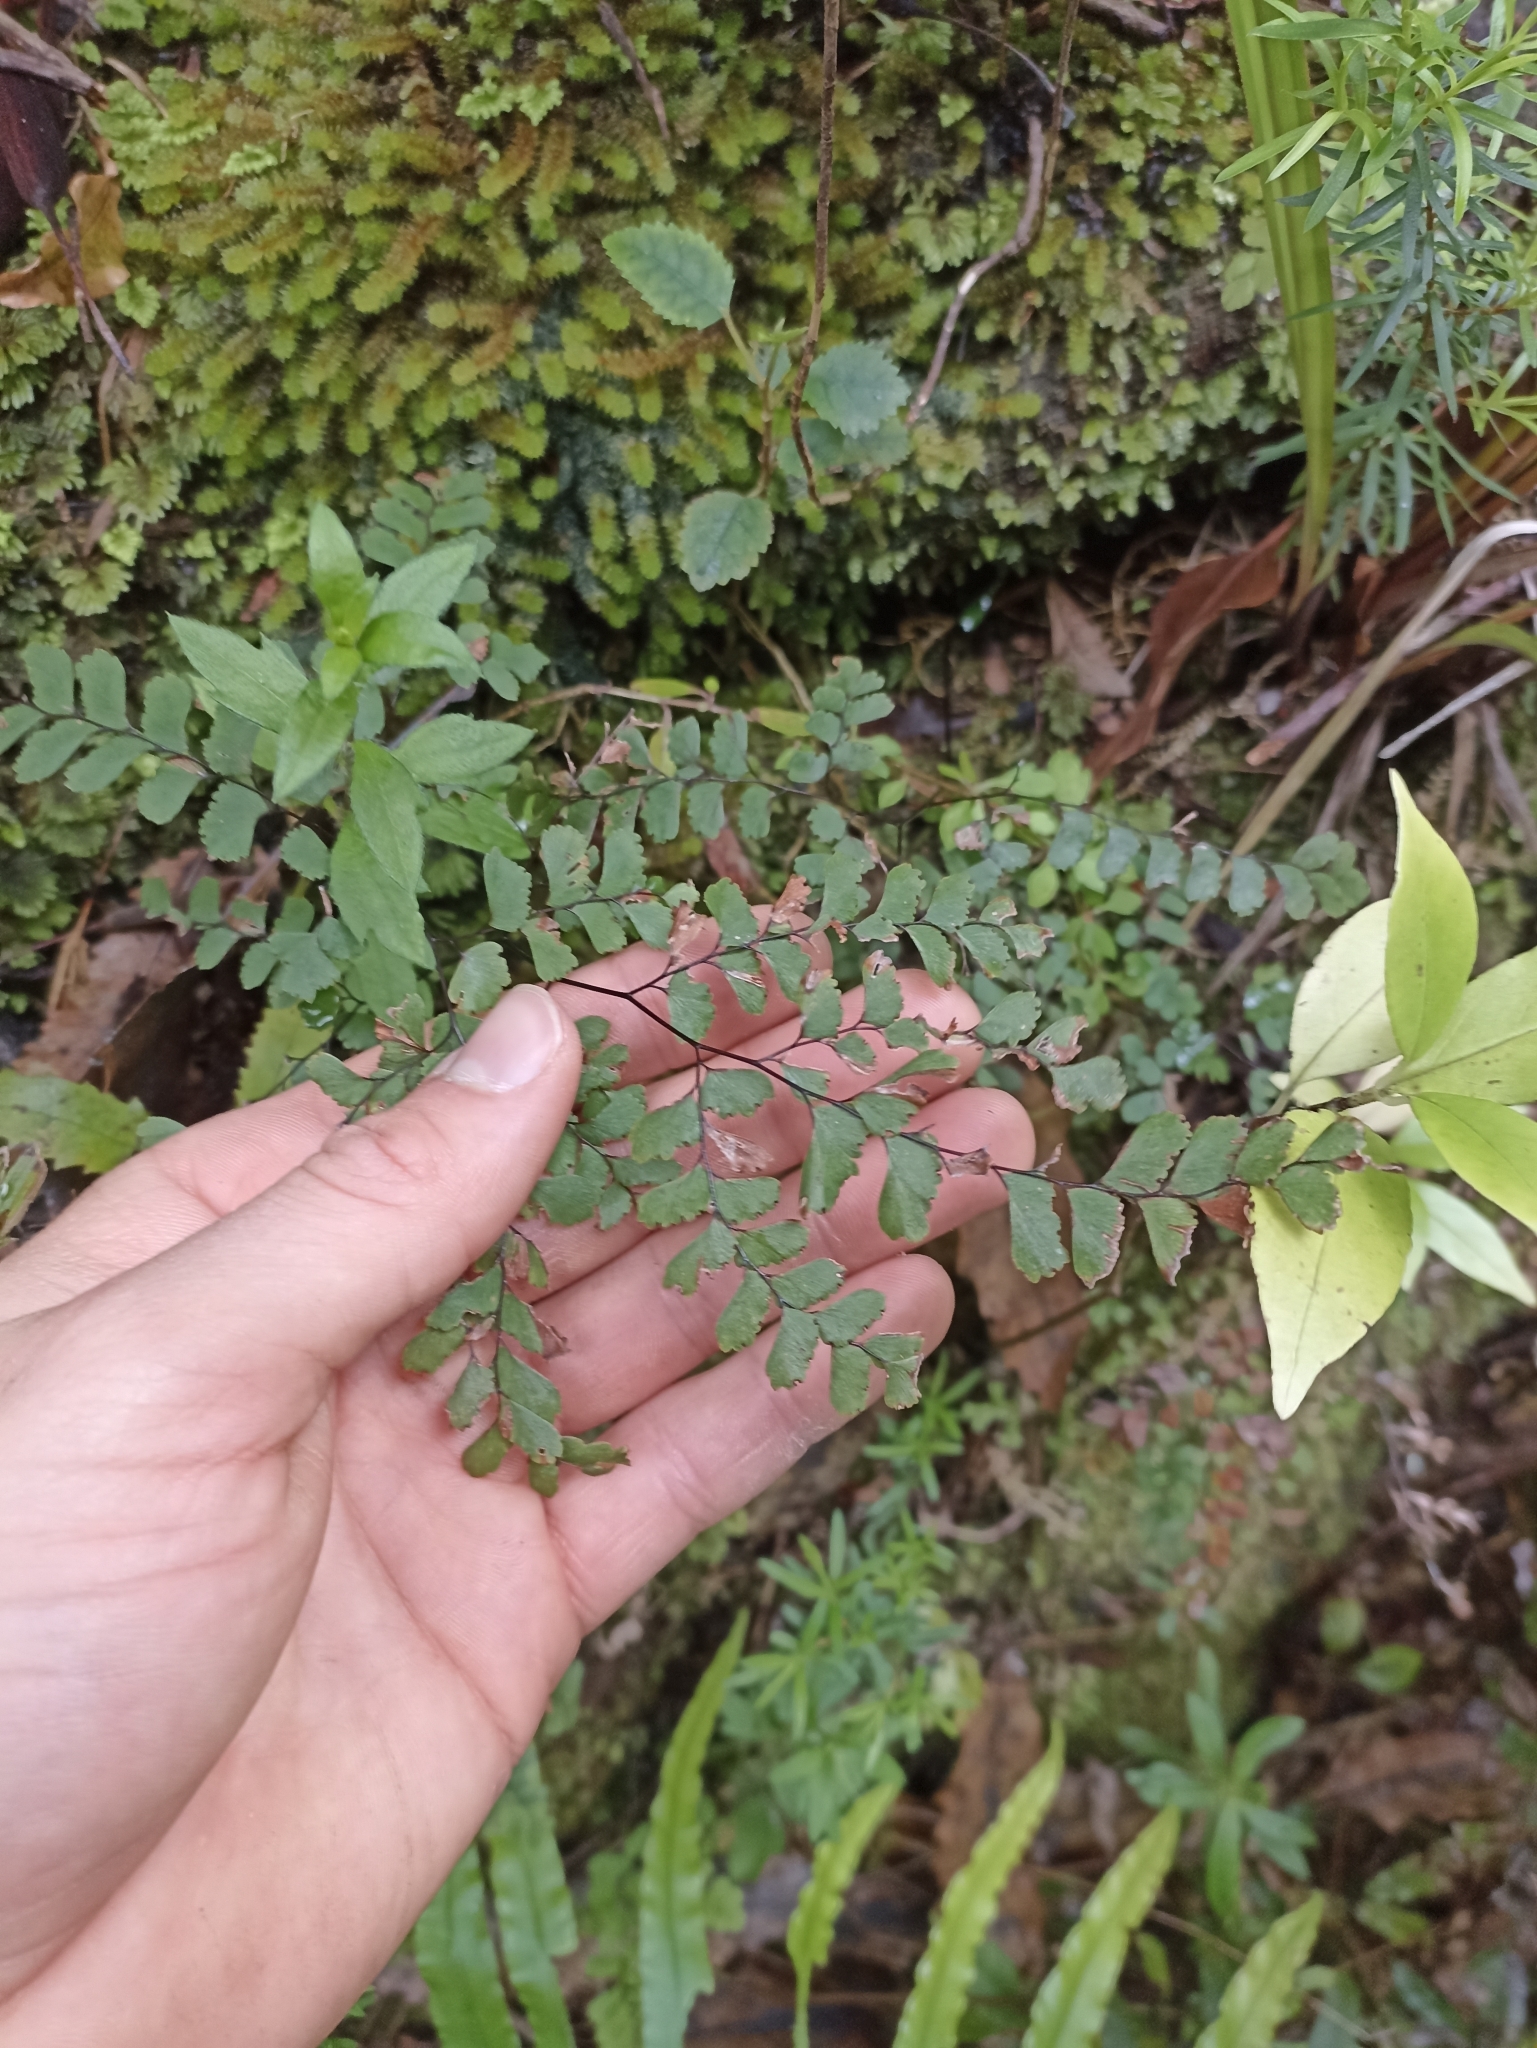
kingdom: Plantae
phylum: Tracheophyta
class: Polypodiopsida
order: Polypodiales
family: Pteridaceae
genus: Adiantum
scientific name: Adiantum cunninghamii
